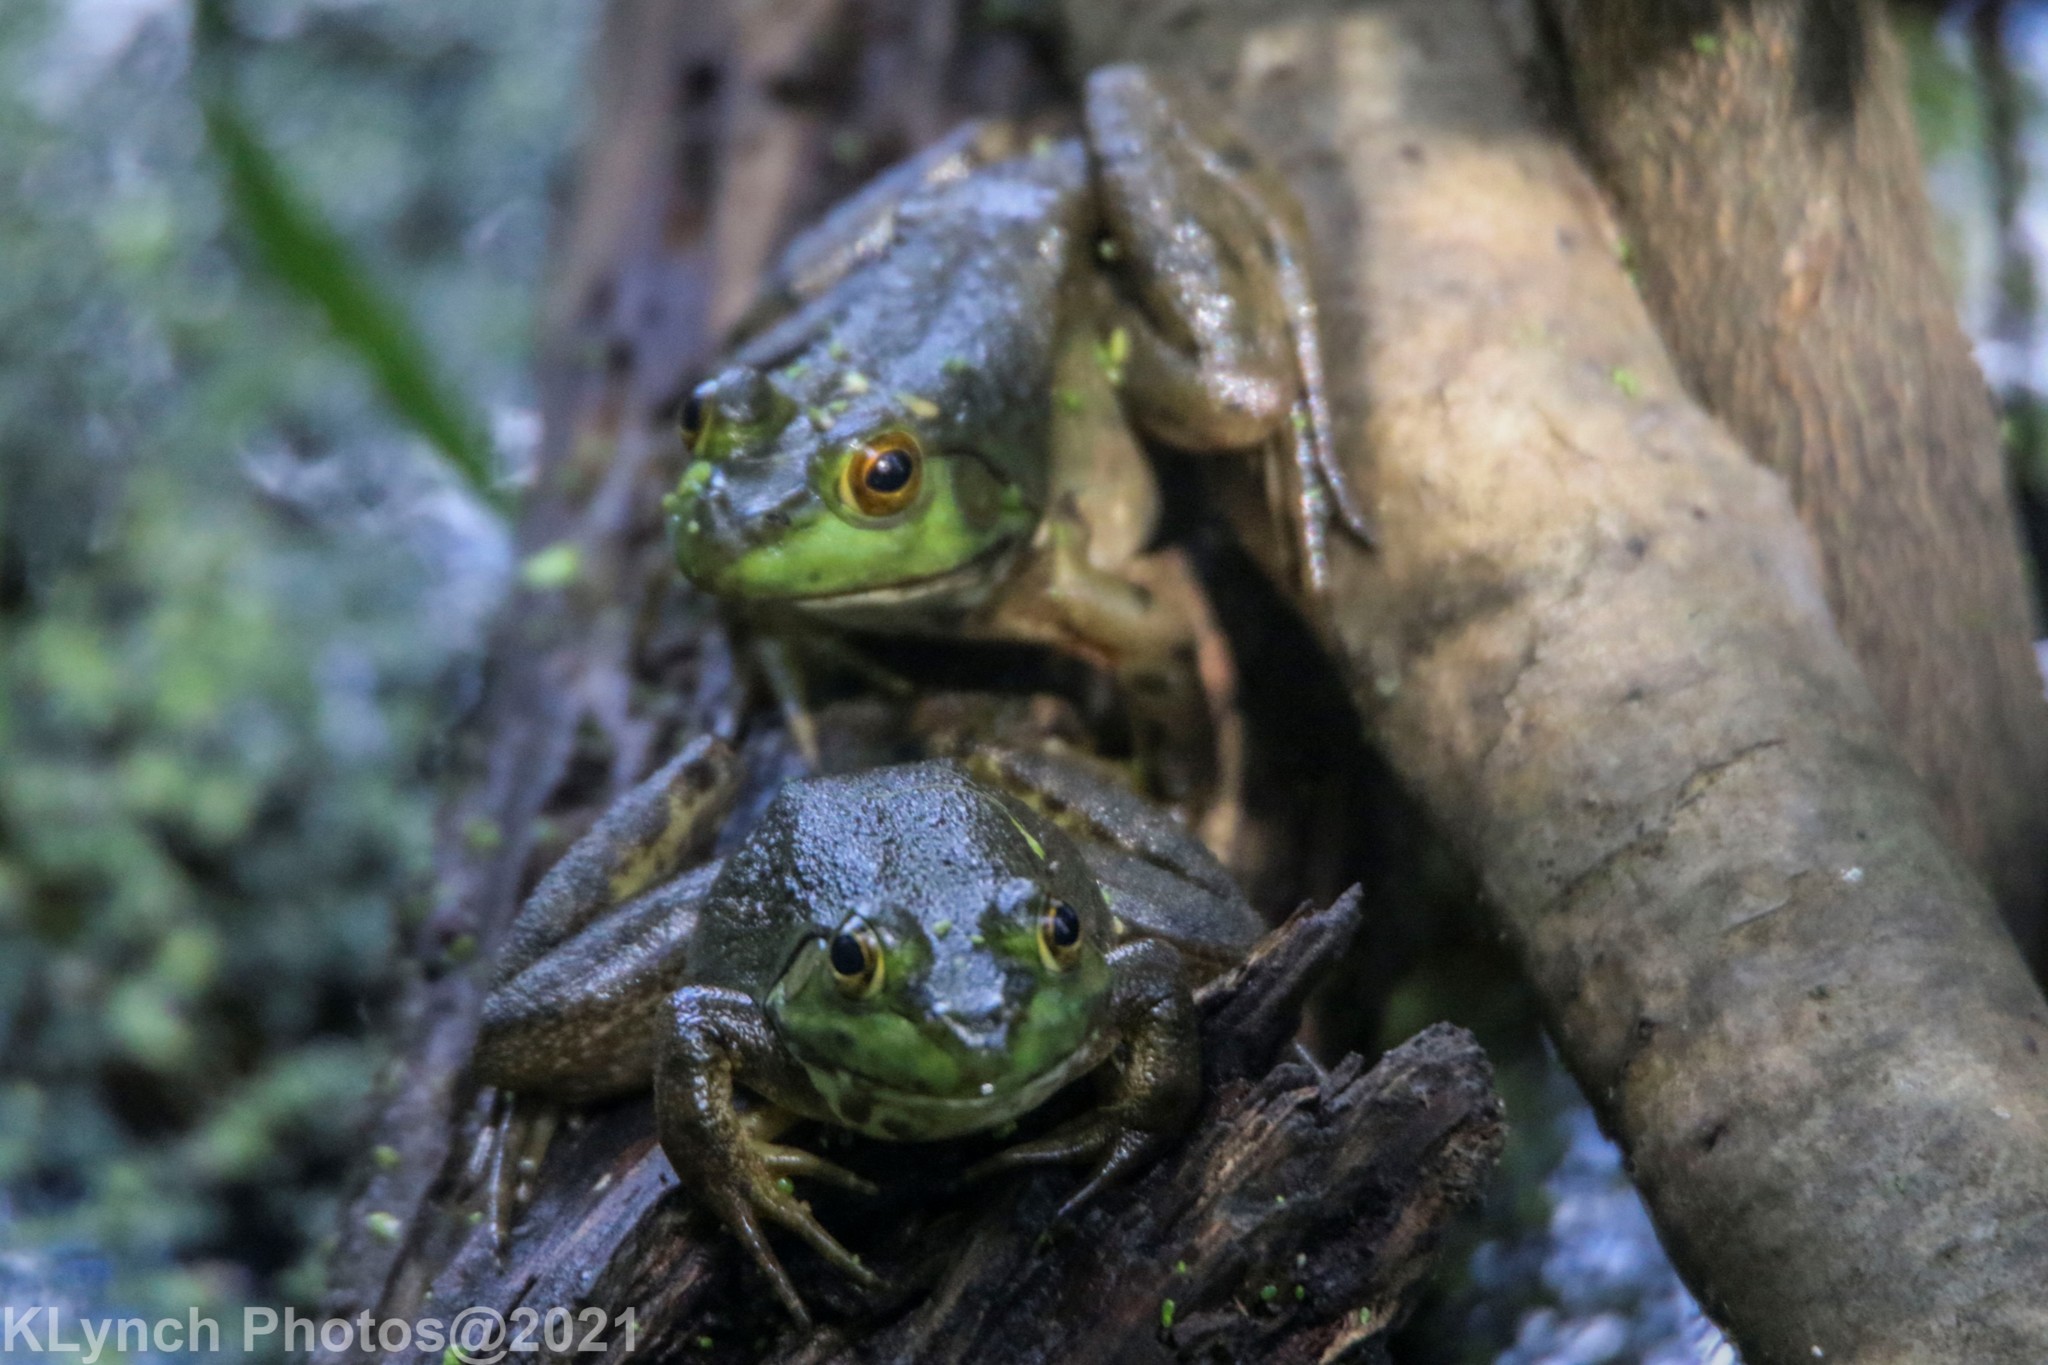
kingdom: Animalia
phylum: Chordata
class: Amphibia
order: Anura
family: Ranidae
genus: Lithobates
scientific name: Lithobates catesbeianus
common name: American bullfrog
